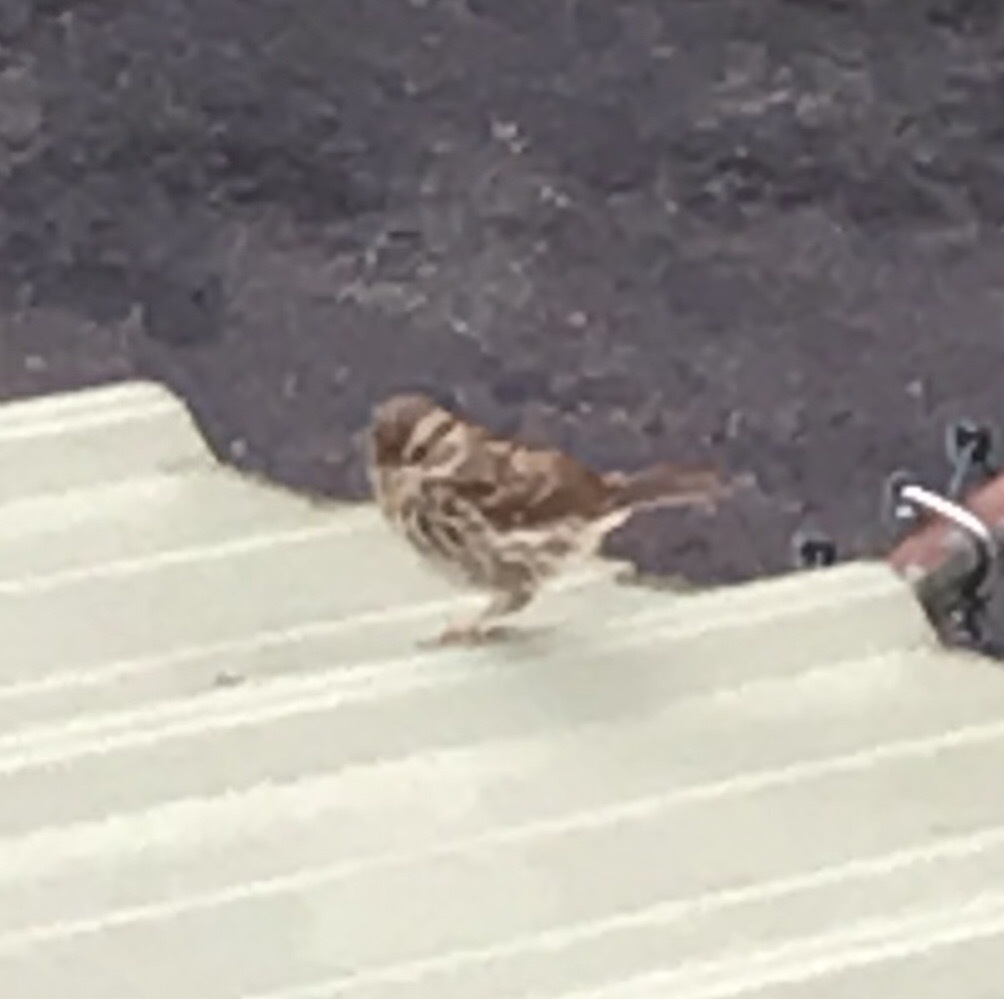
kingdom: Animalia
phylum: Chordata
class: Aves
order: Passeriformes
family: Passerellidae
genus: Melospiza
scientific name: Melospiza melodia
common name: Song sparrow
